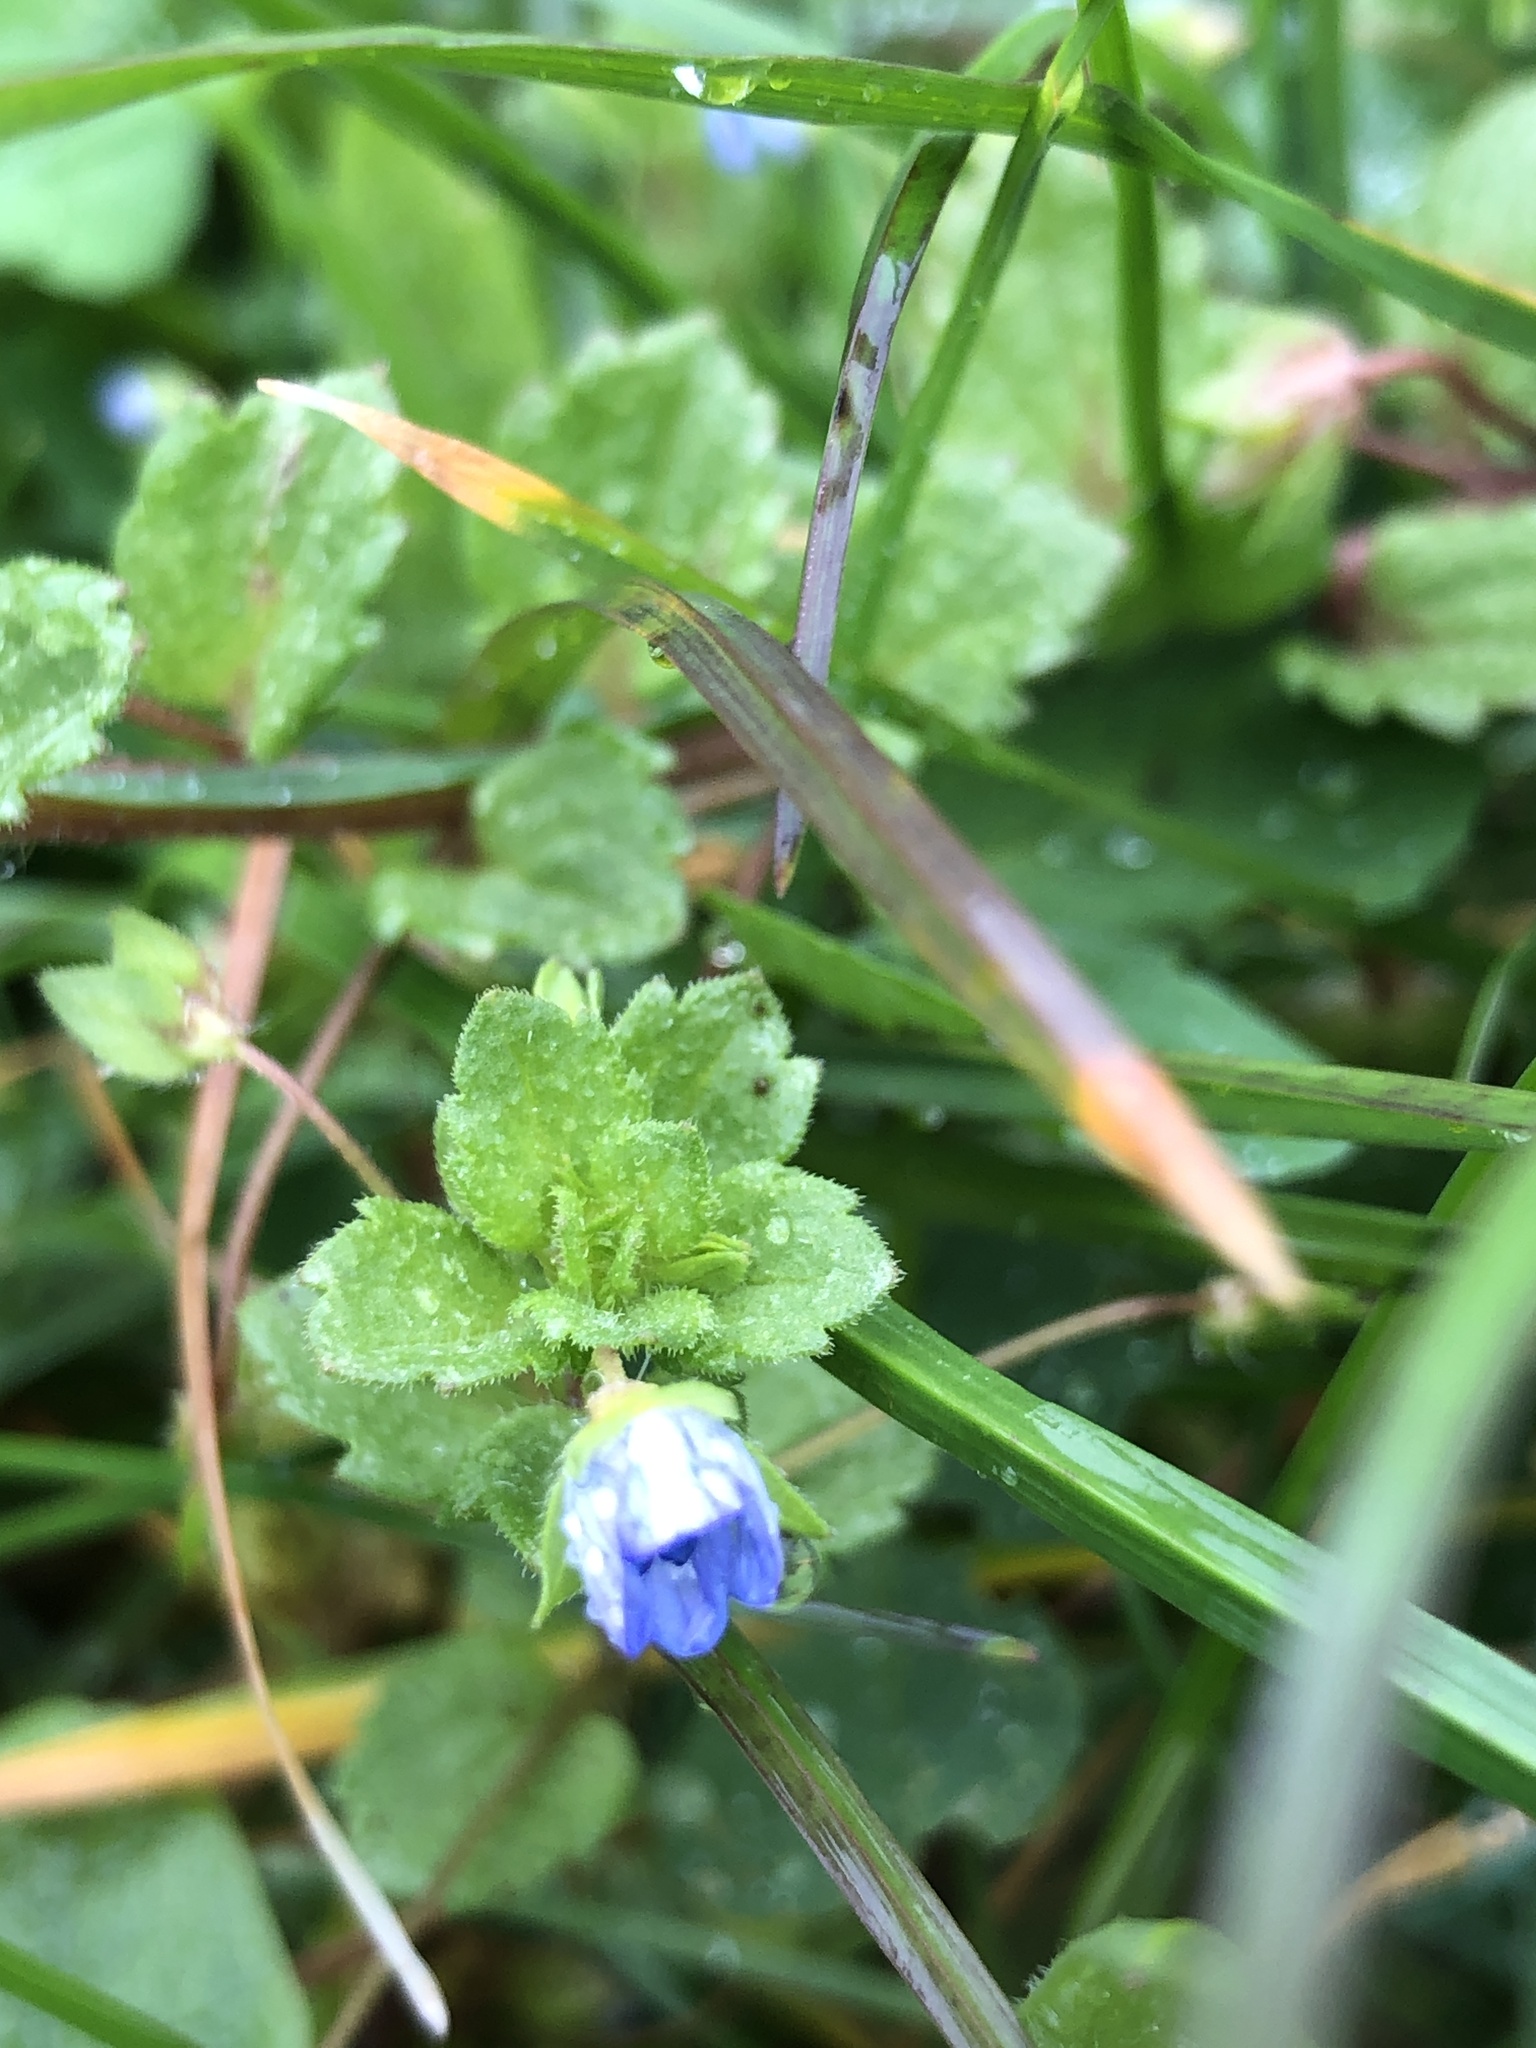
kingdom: Plantae
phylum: Tracheophyta
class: Magnoliopsida
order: Lamiales
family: Plantaginaceae
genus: Veronica
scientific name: Veronica persica
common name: Common field-speedwell
